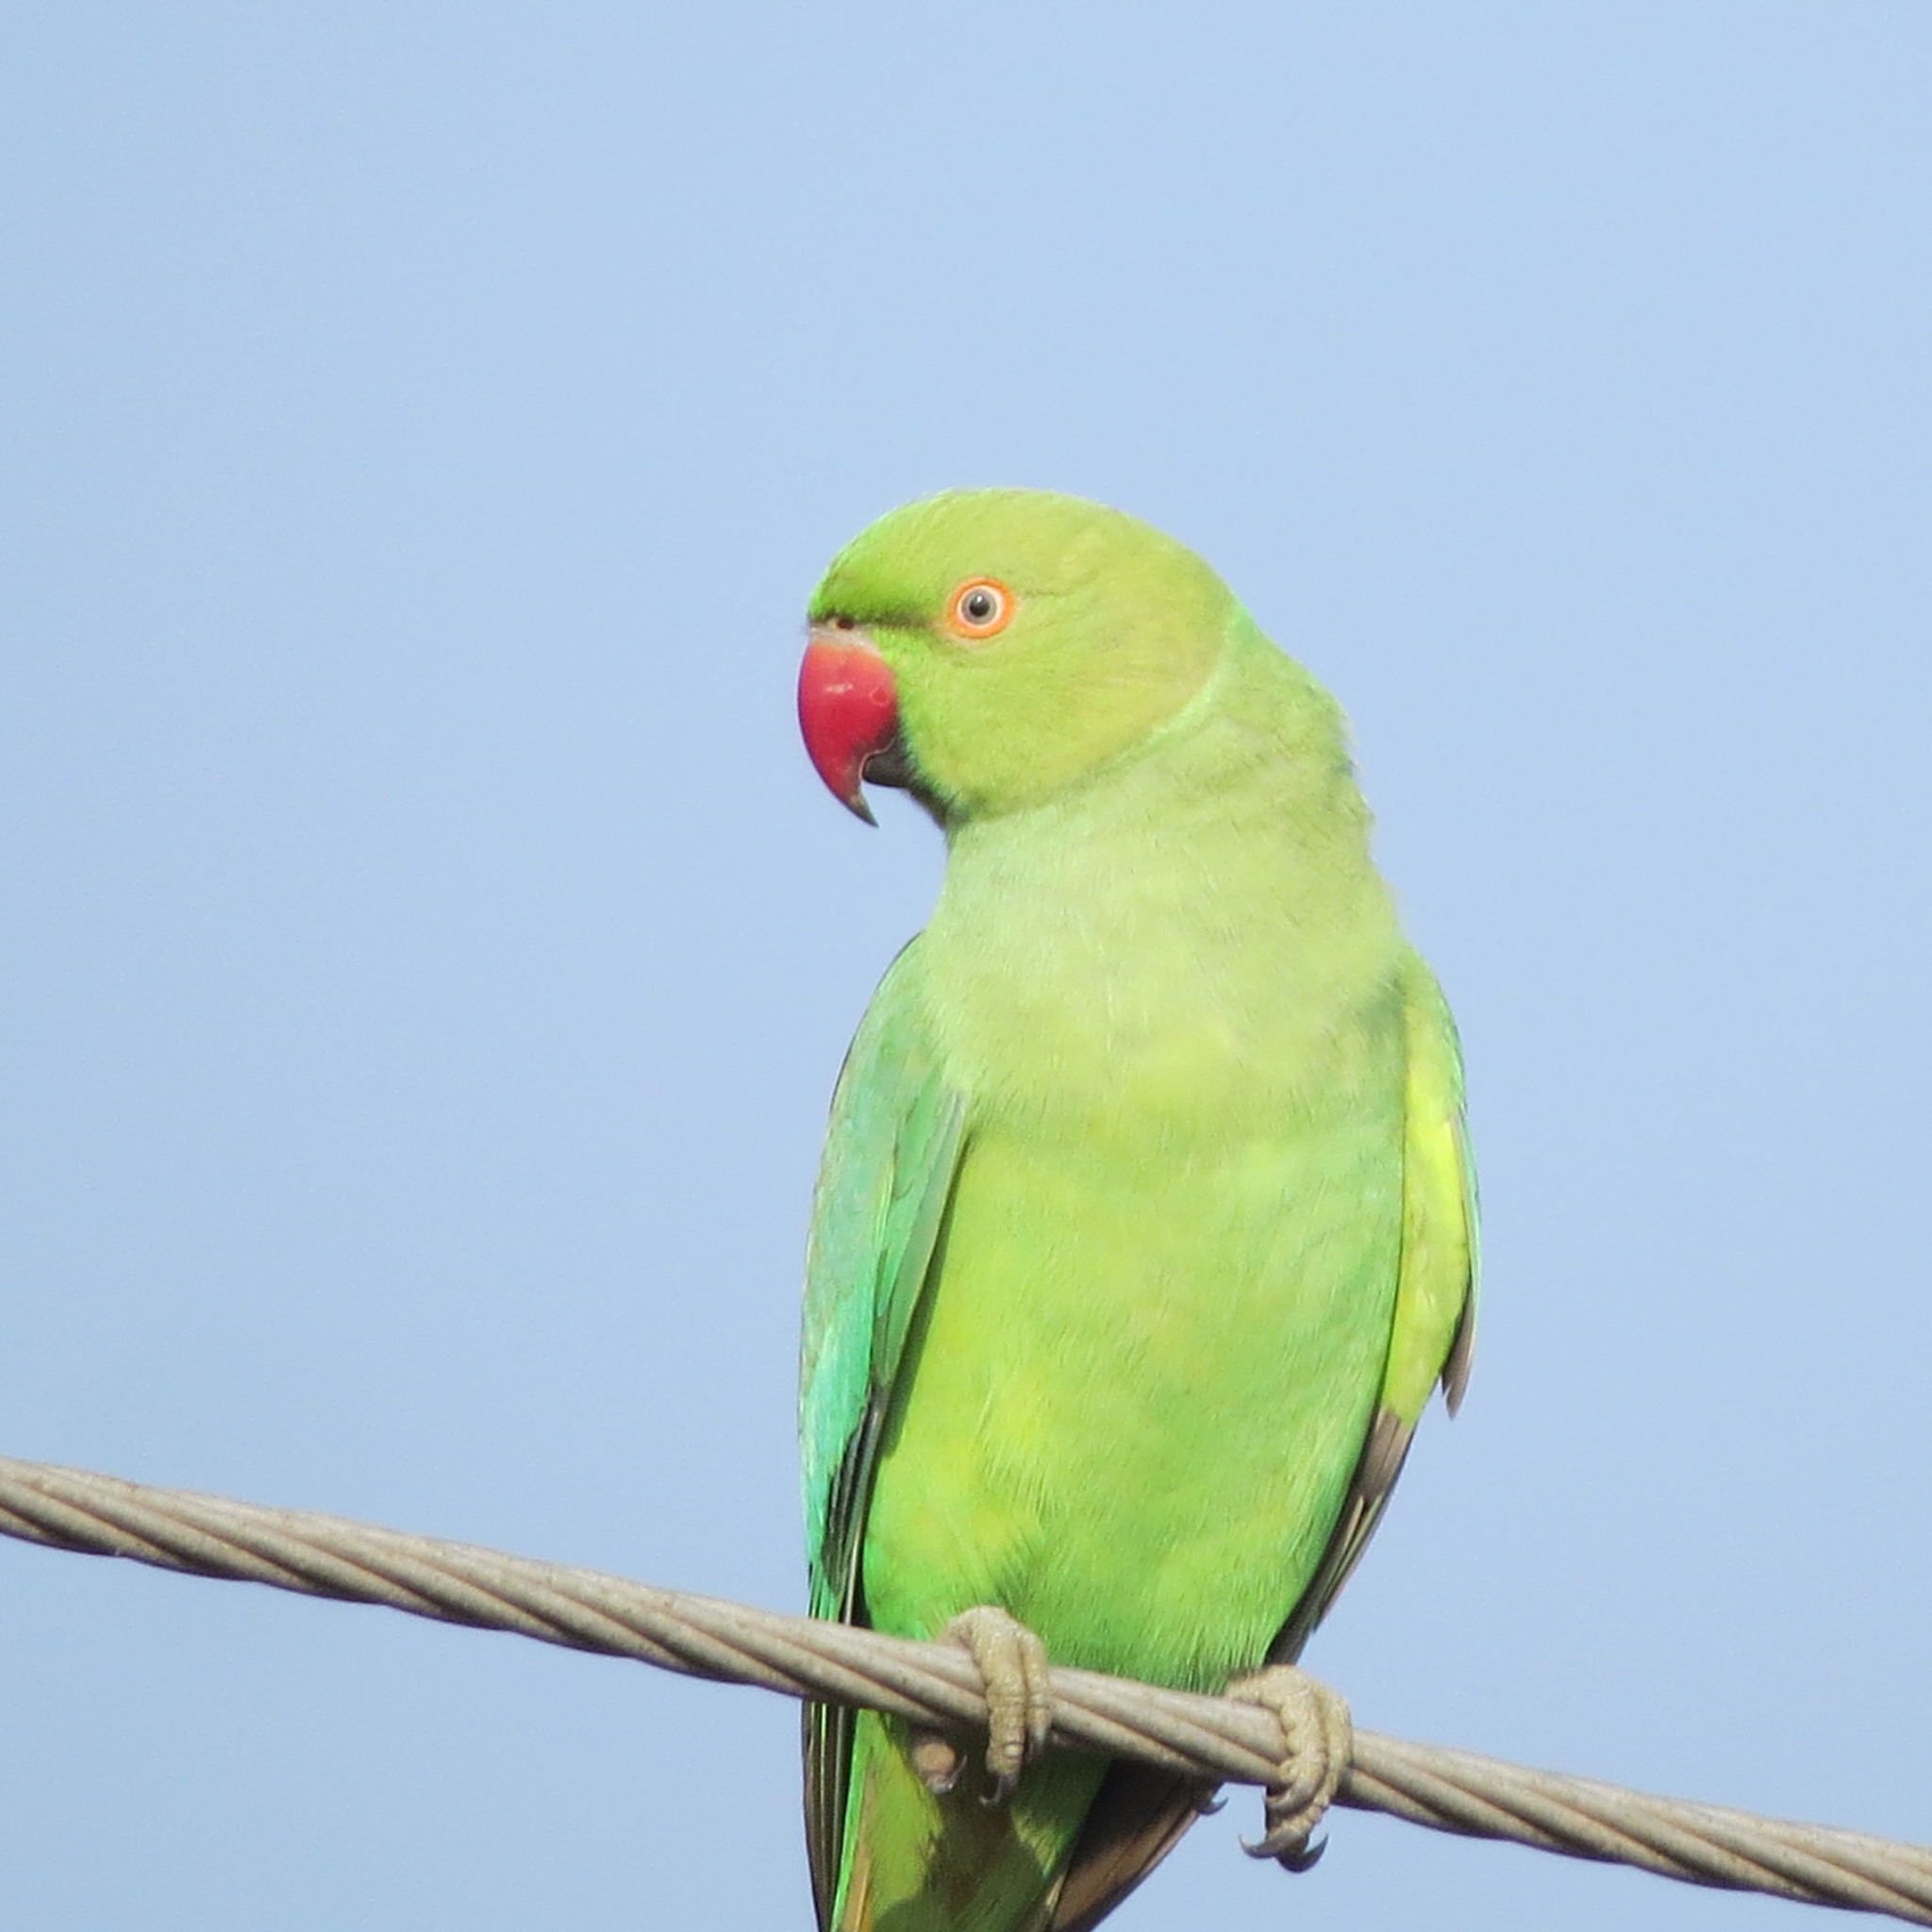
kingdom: Animalia
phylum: Chordata
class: Aves
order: Psittaciformes
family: Psittacidae
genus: Psittacula
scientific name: Psittacula krameri
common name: Rose-ringed parakeet
